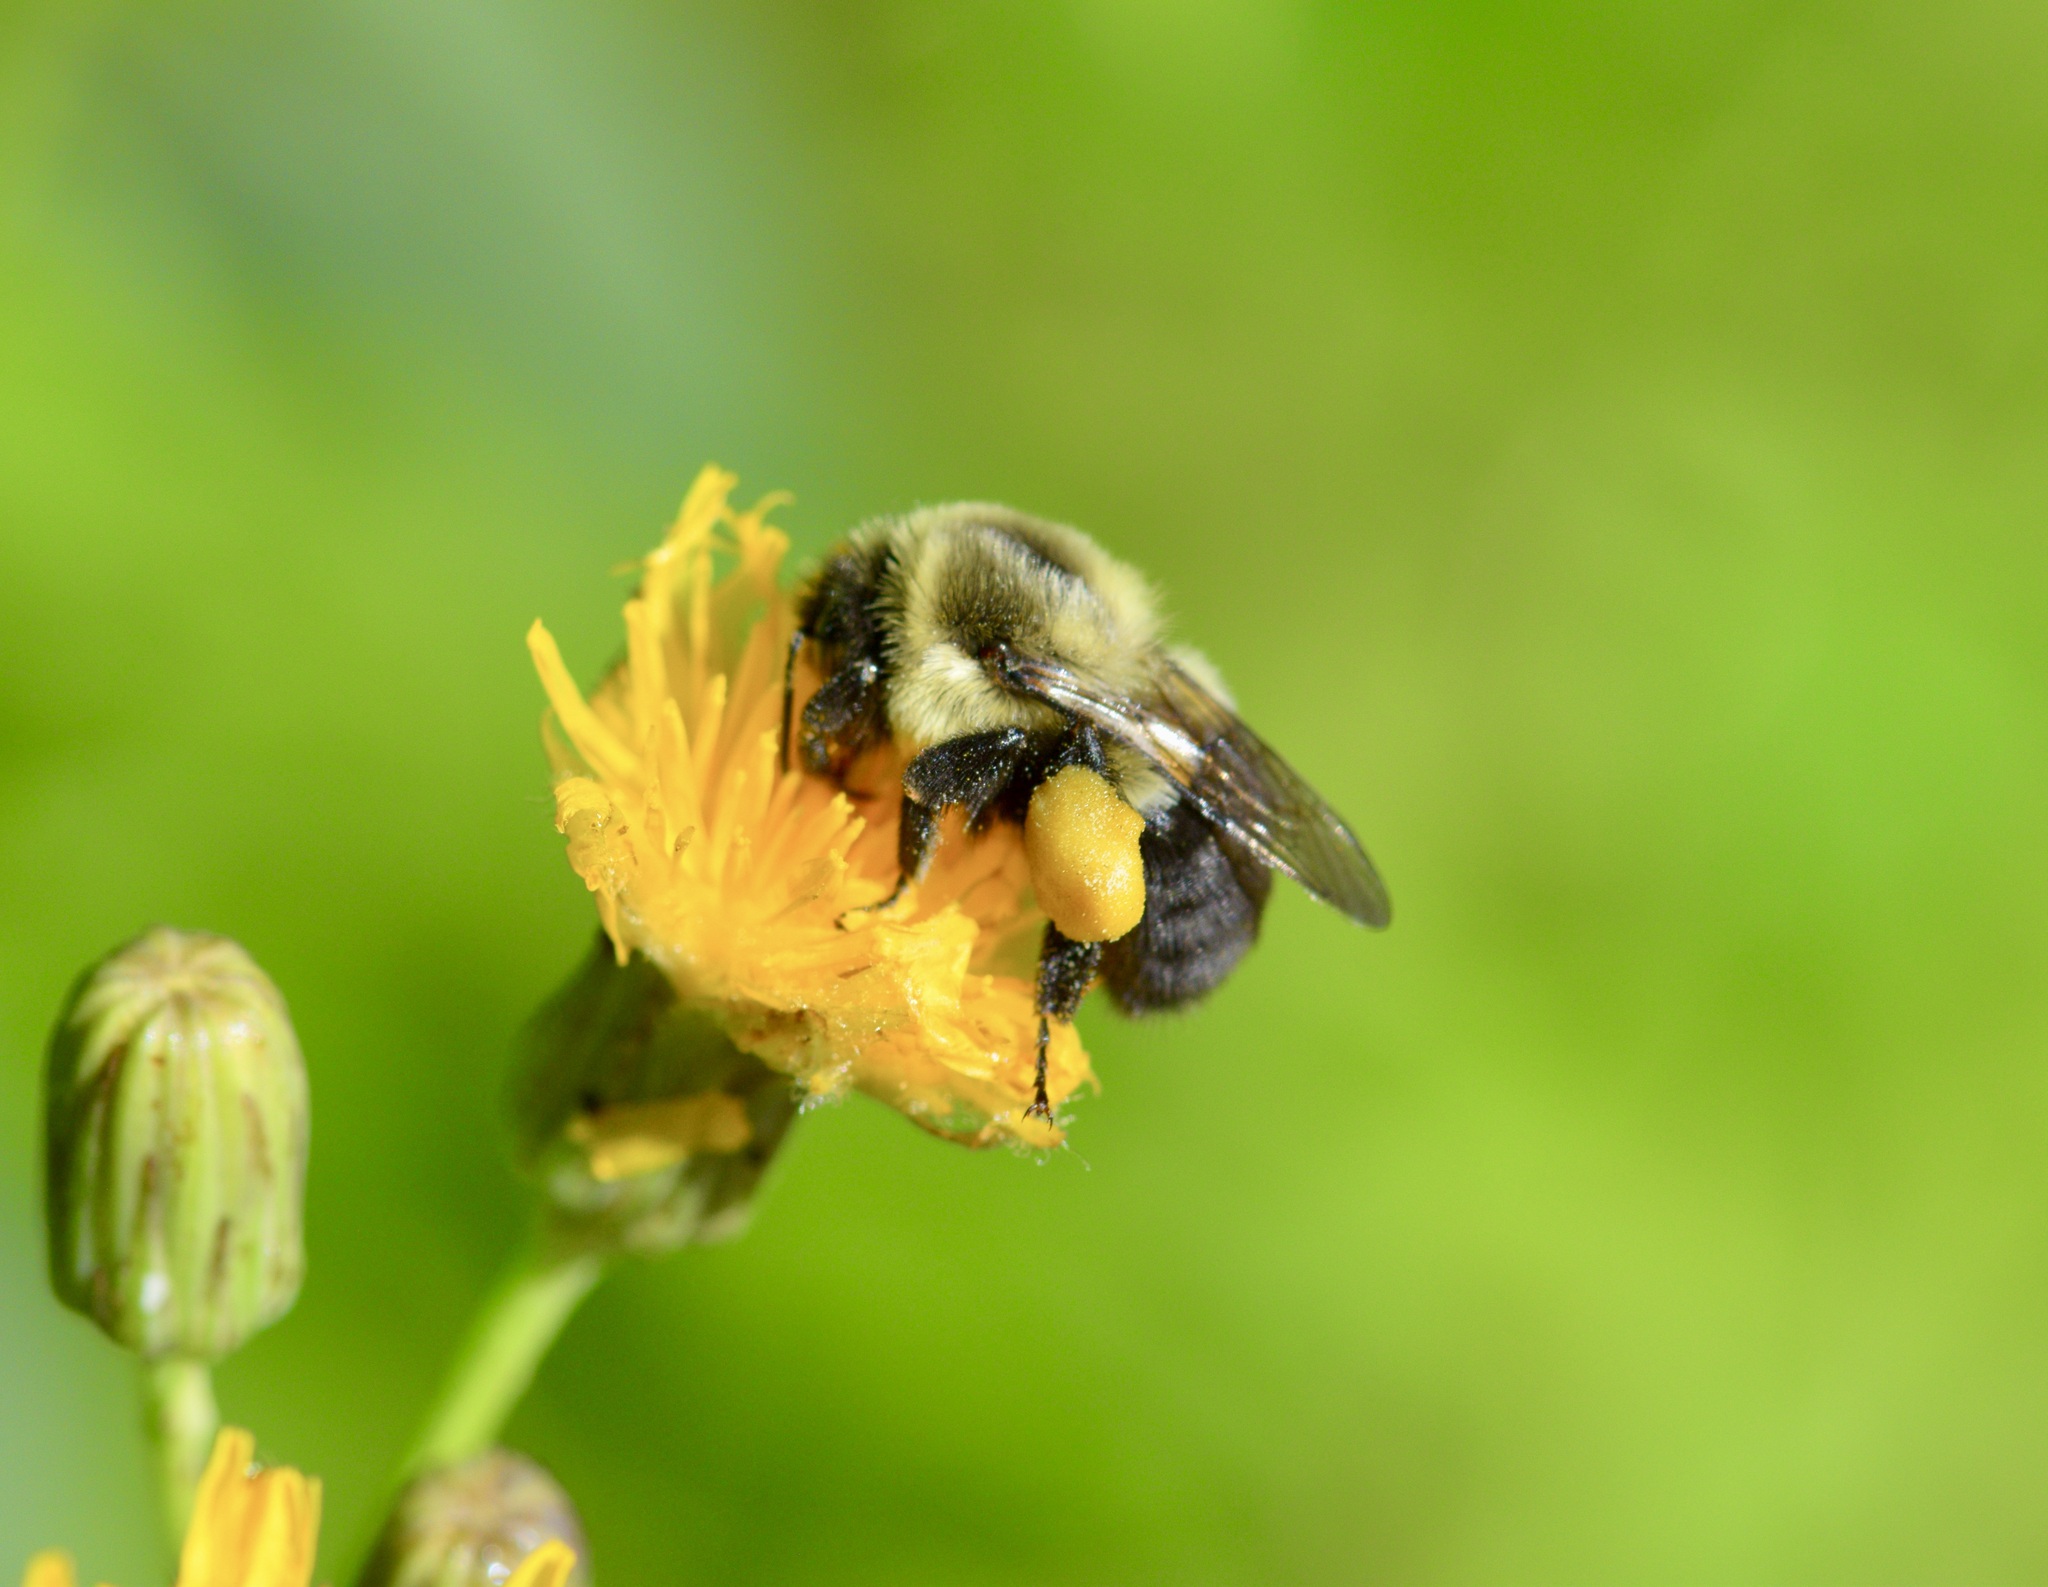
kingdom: Animalia
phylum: Arthropoda
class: Insecta
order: Hymenoptera
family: Apidae
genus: Bombus
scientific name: Bombus impatiens
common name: Common eastern bumble bee
